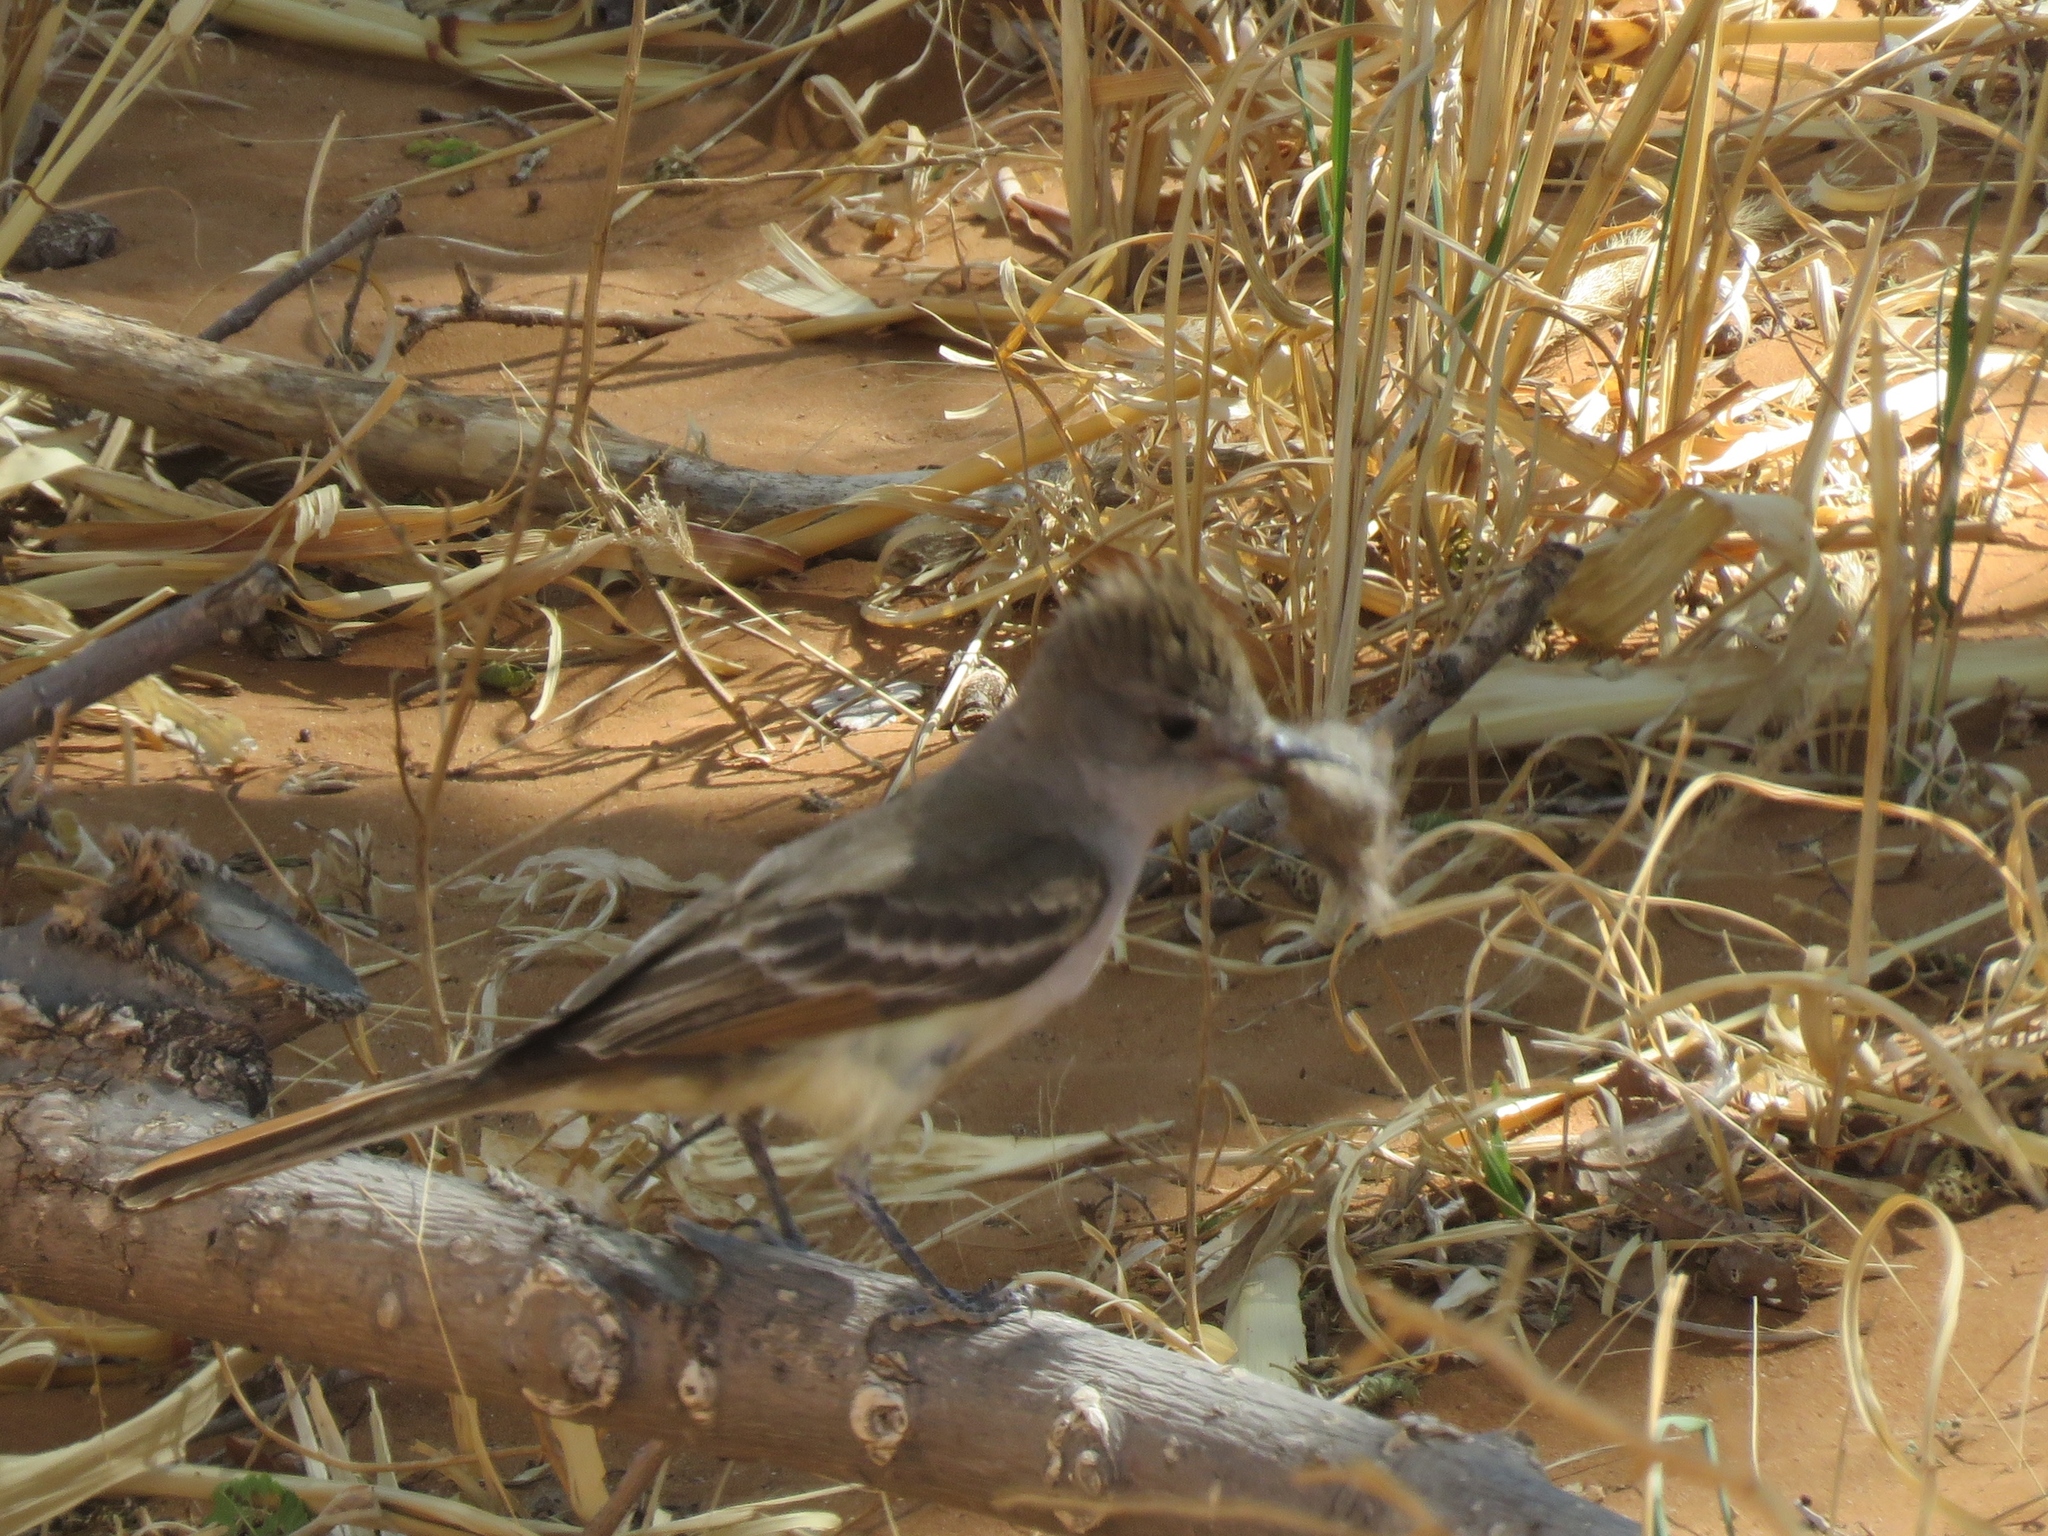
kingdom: Animalia
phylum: Chordata
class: Aves
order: Passeriformes
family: Tyrannidae
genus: Myiarchus
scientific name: Myiarchus cinerascens
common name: Ash-throated flycatcher
